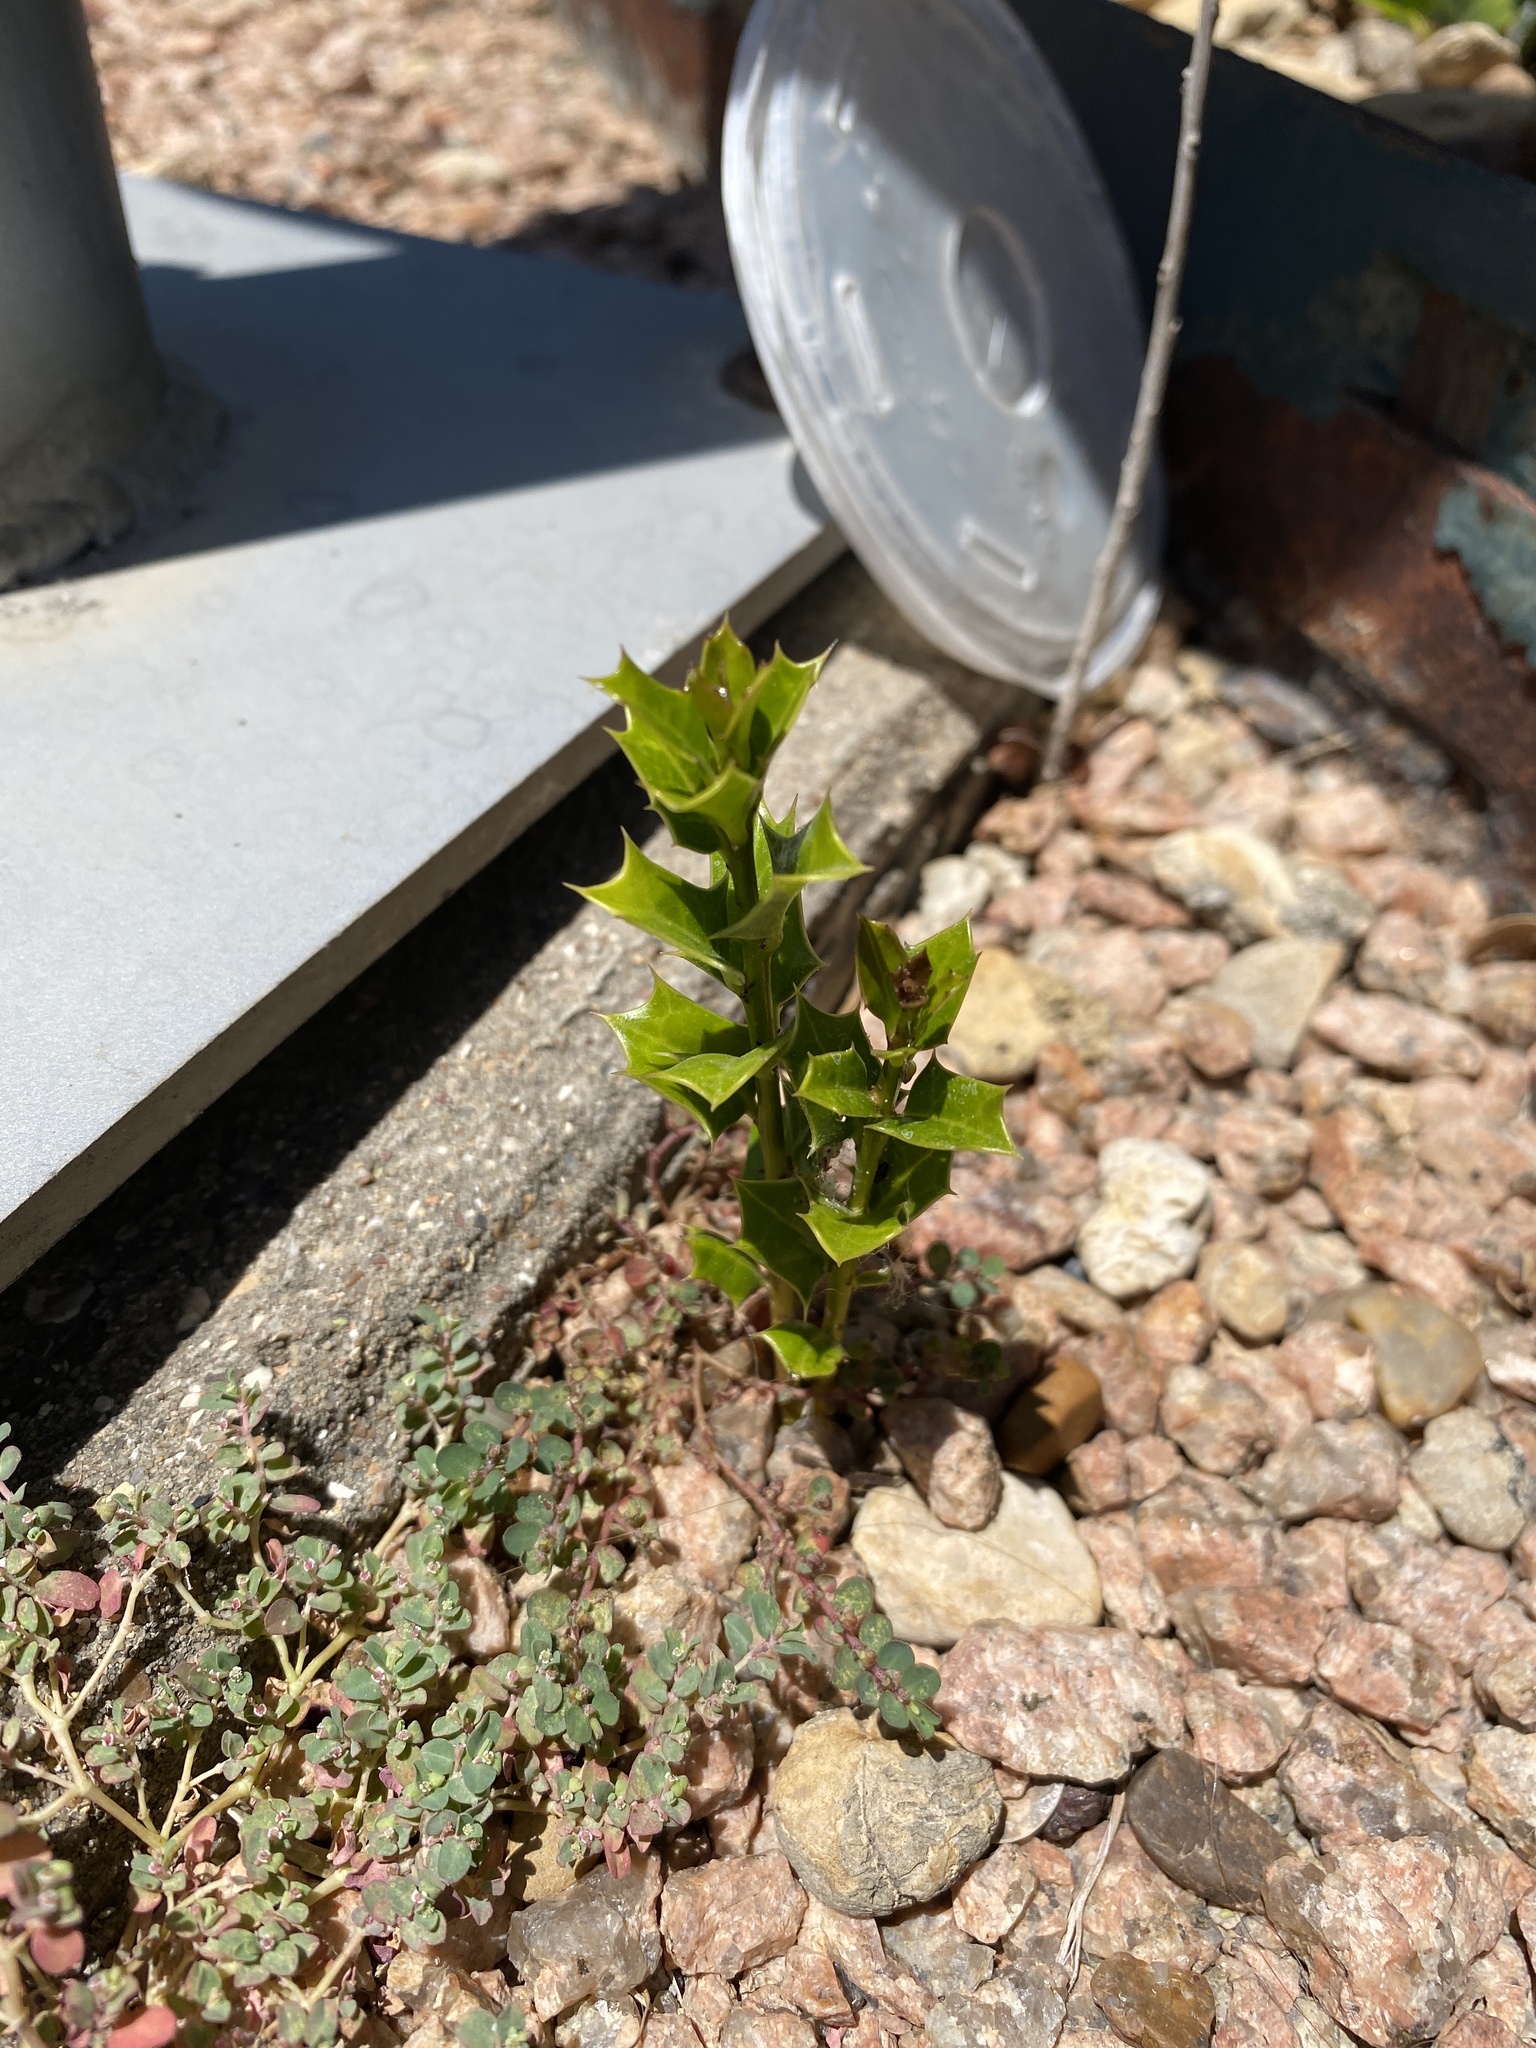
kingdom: Plantae
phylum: Tracheophyta
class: Magnoliopsida
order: Aquifoliales
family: Aquifoliaceae
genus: Ilex
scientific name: Ilex cornuta
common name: Chinese holly
